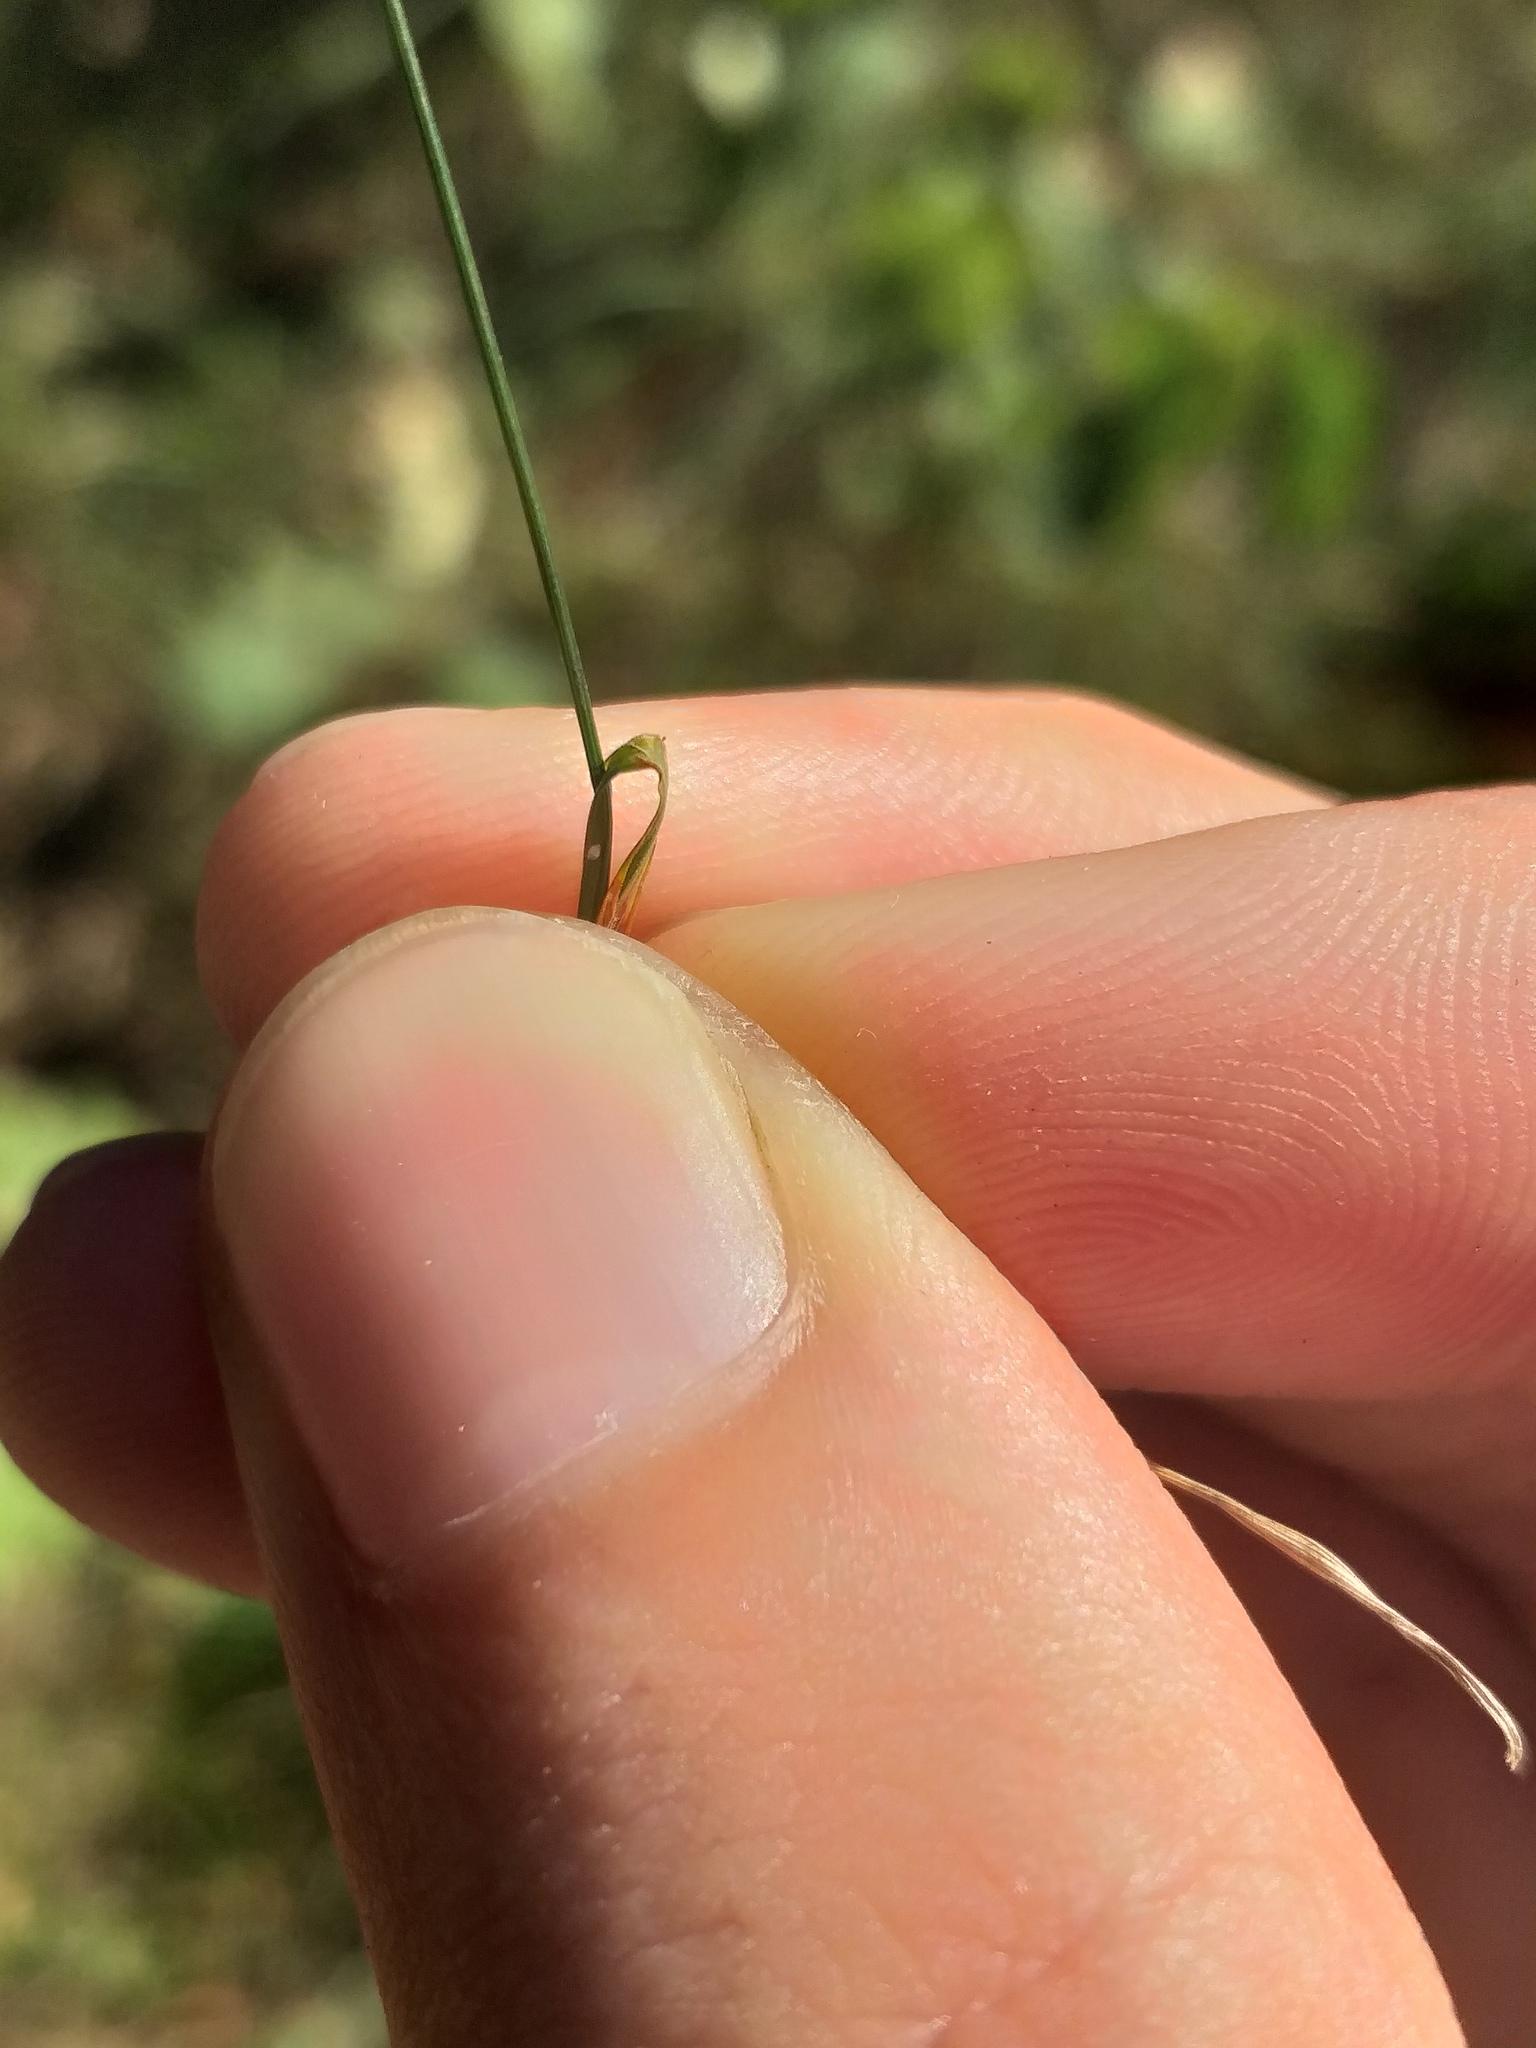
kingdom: Plantae
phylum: Tracheophyta
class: Liliopsida
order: Poales
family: Poaceae
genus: Poa
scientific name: Poa nemoralis
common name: Wood bluegrass
